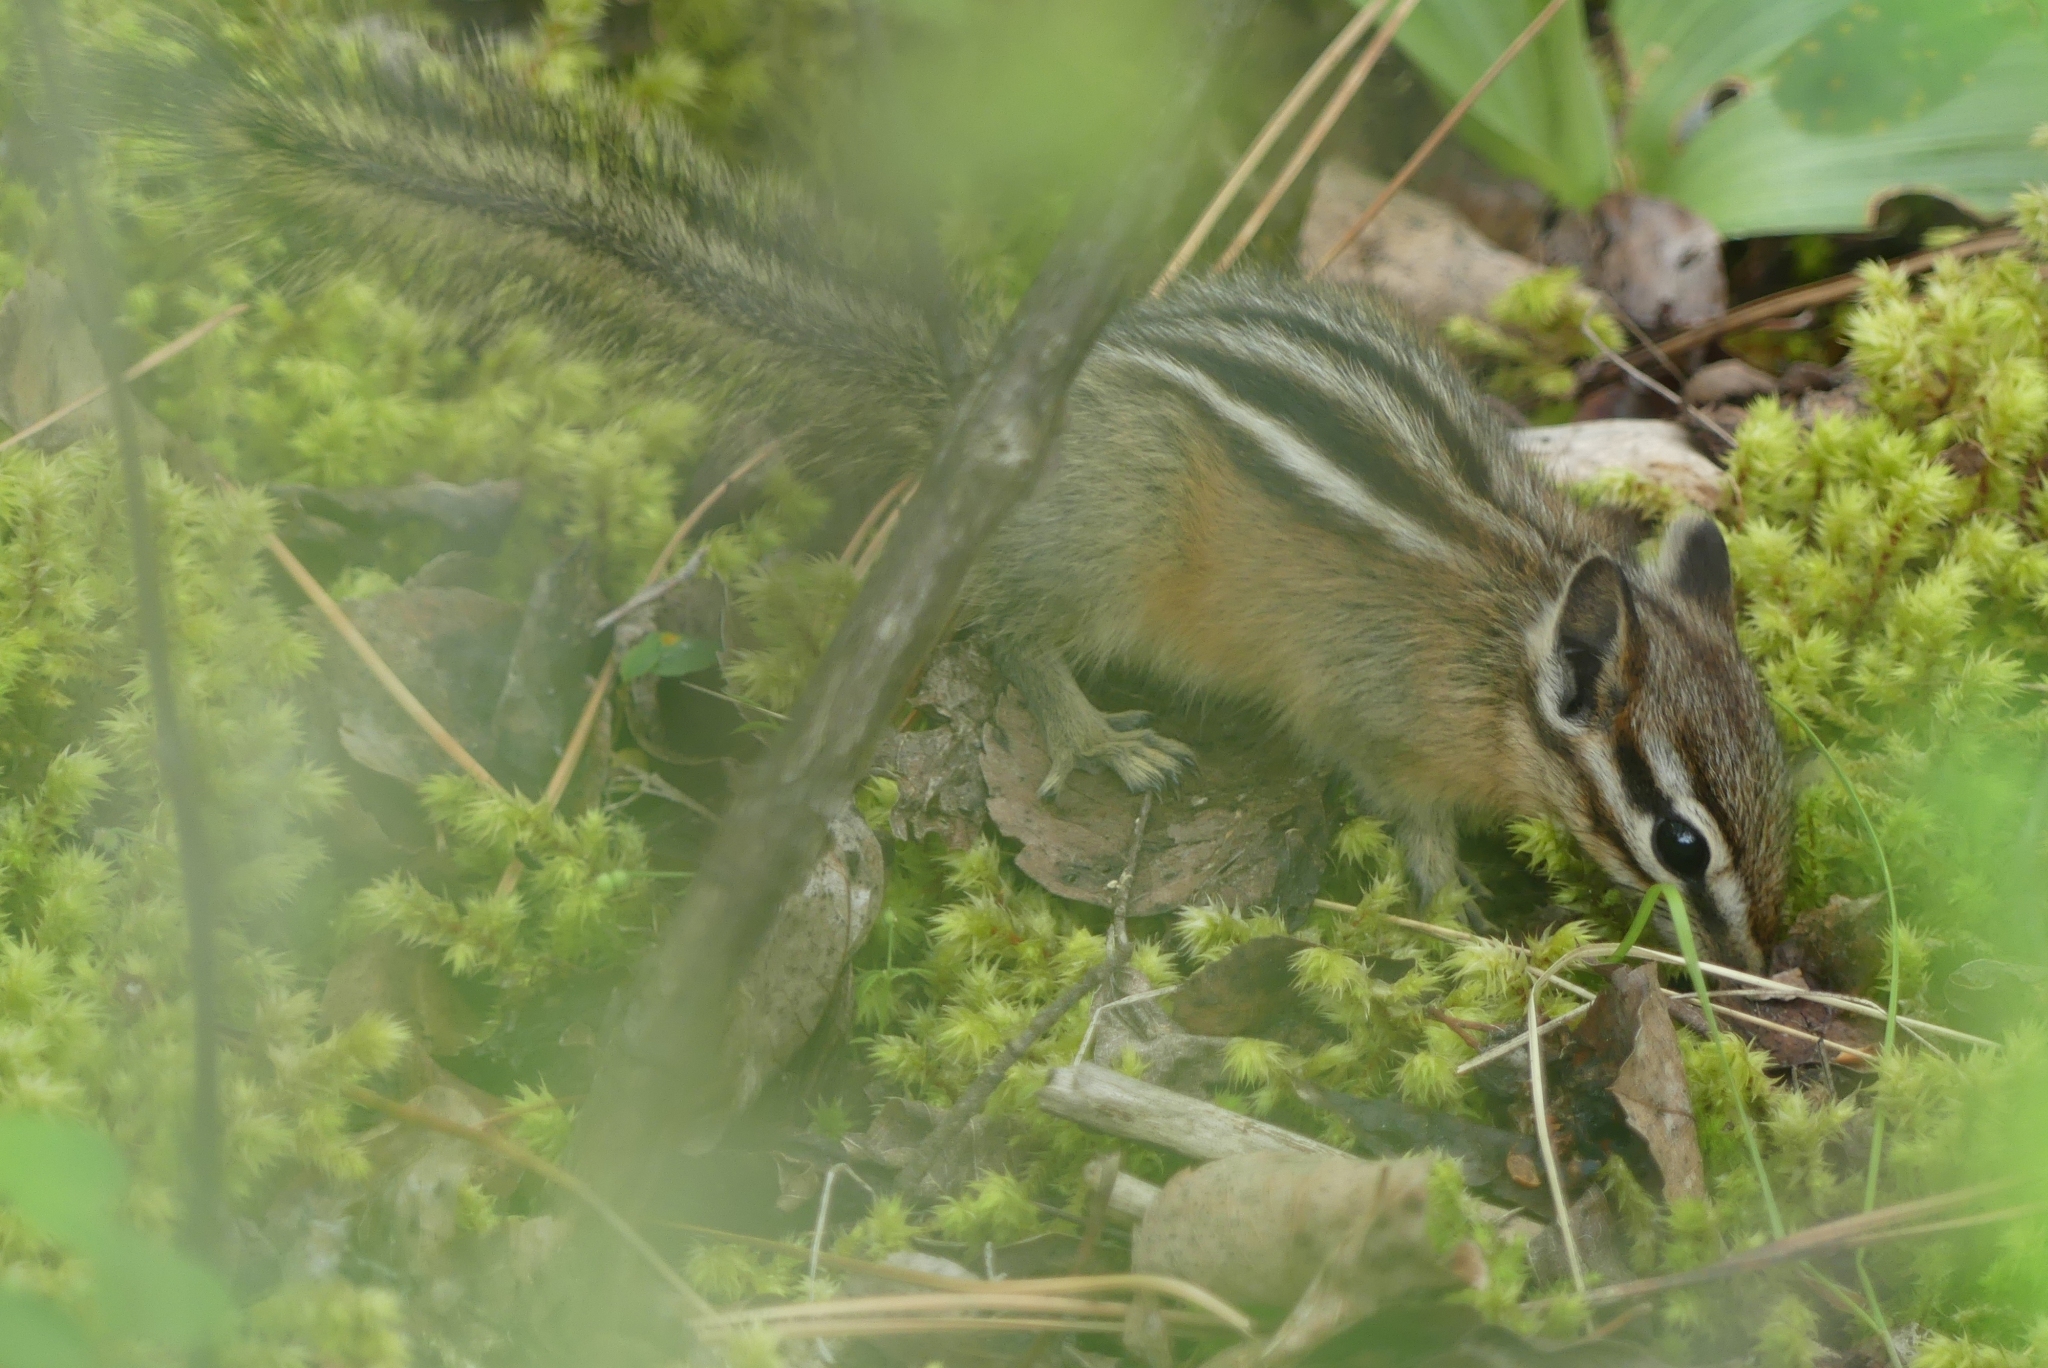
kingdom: Animalia
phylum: Chordata
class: Mammalia
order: Rodentia
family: Sciuridae
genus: Tamias
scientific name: Tamias amoenus
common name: Yellow-pine chipmunk
